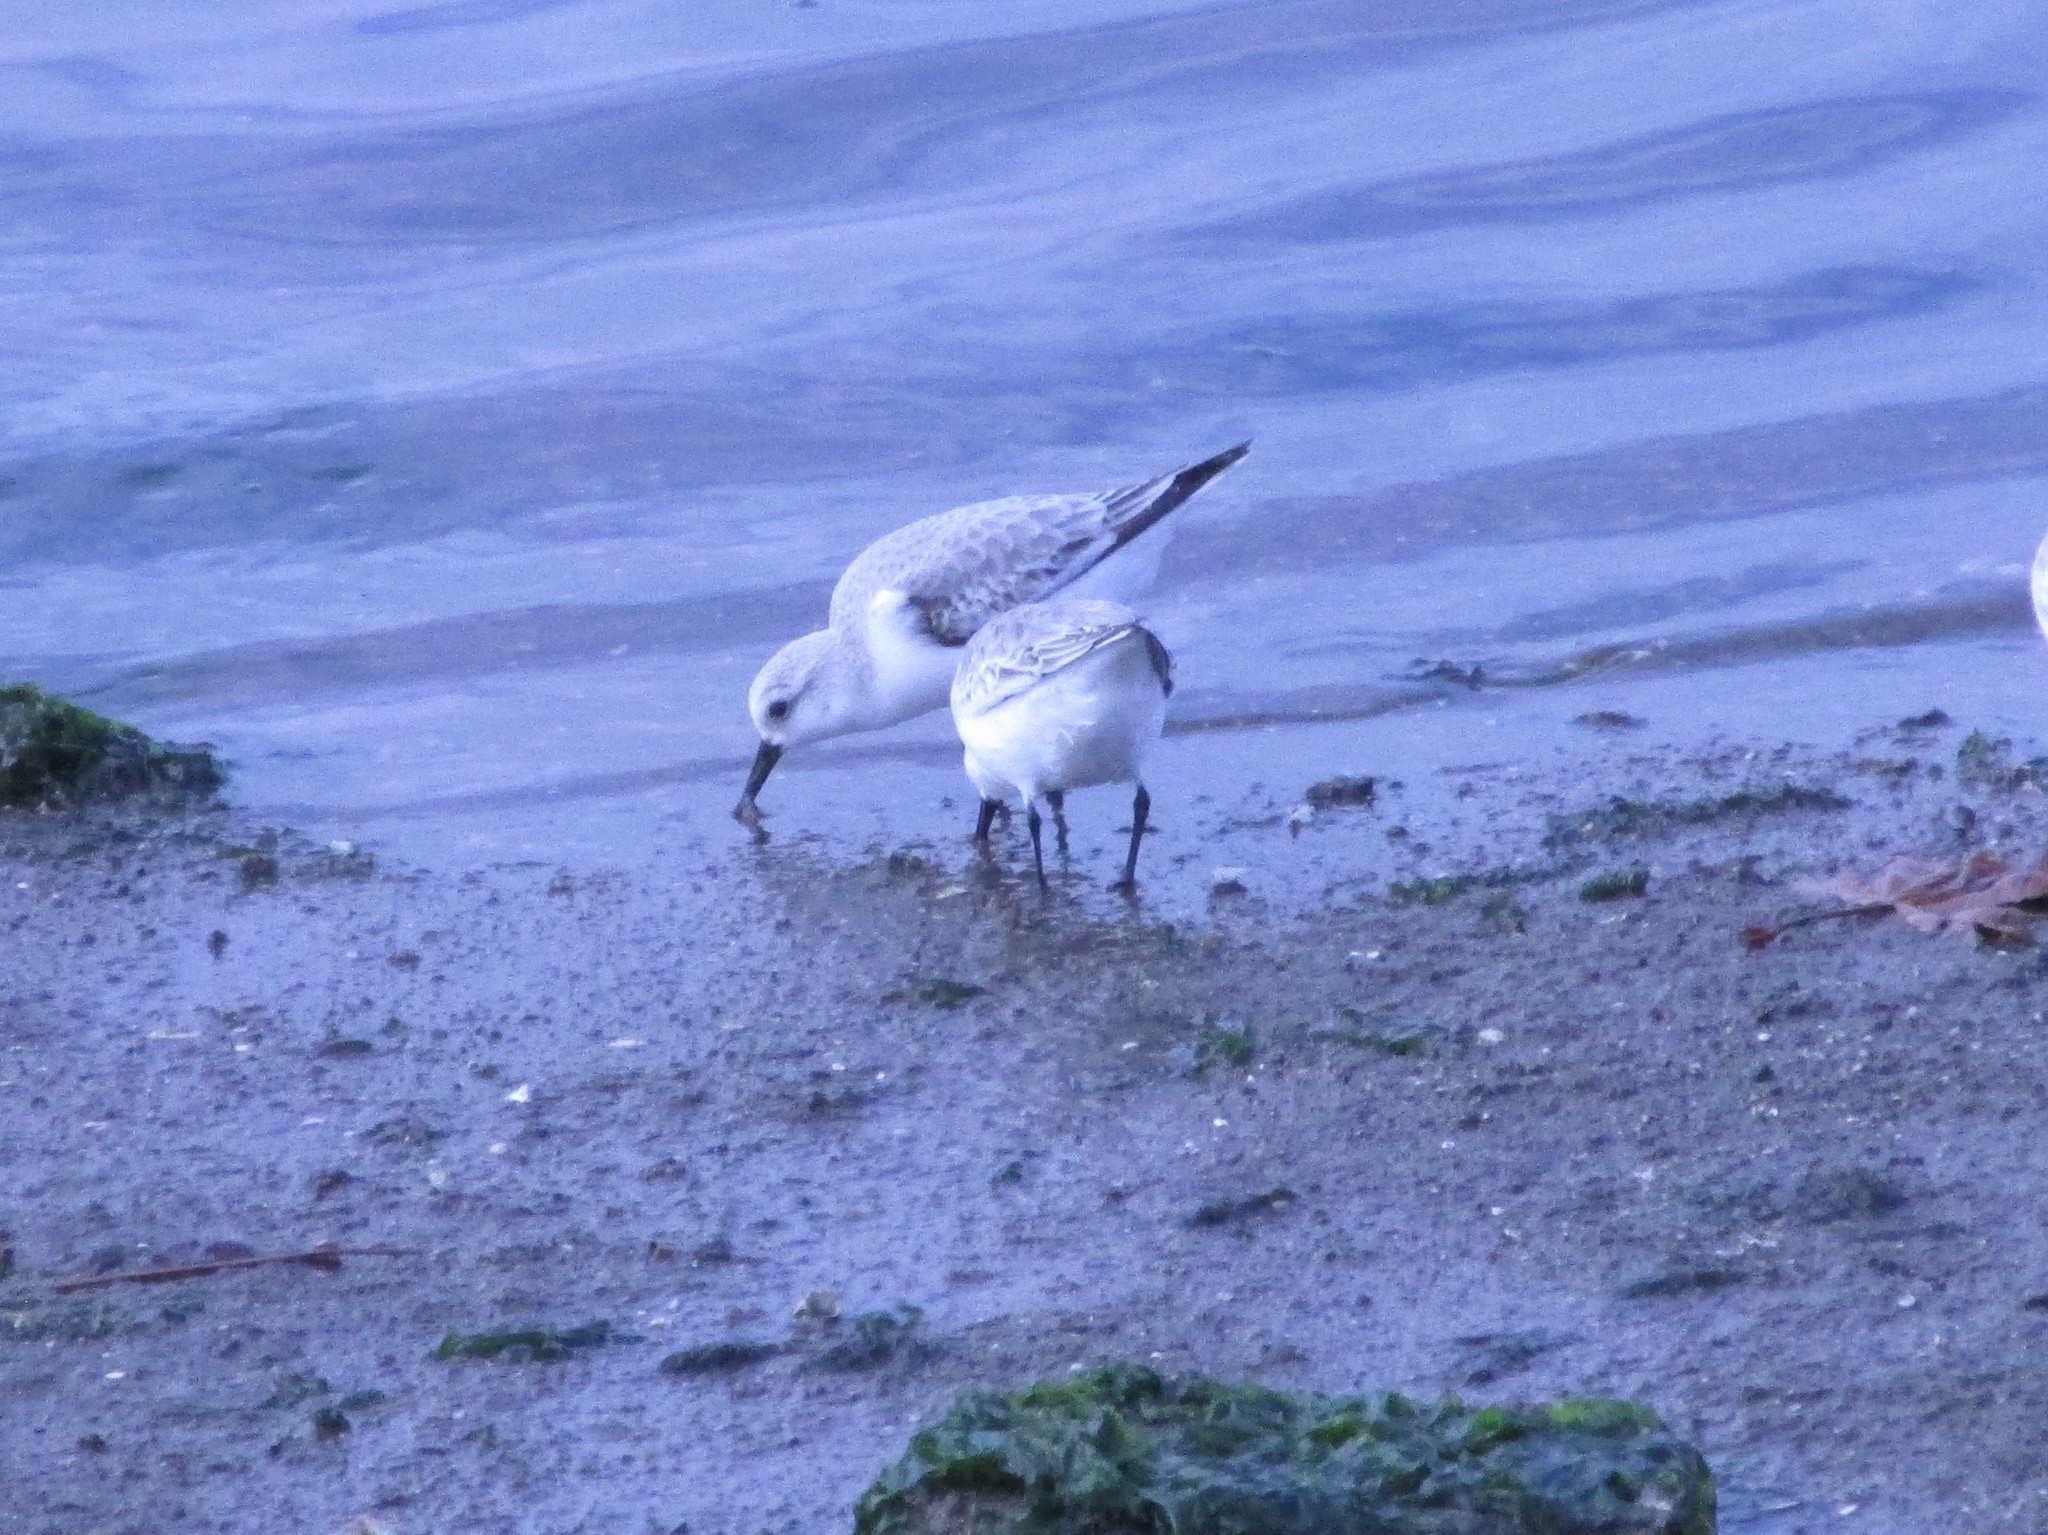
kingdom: Animalia
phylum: Chordata
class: Aves
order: Charadriiformes
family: Scolopacidae
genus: Calidris
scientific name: Calidris alba
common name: Sanderling
